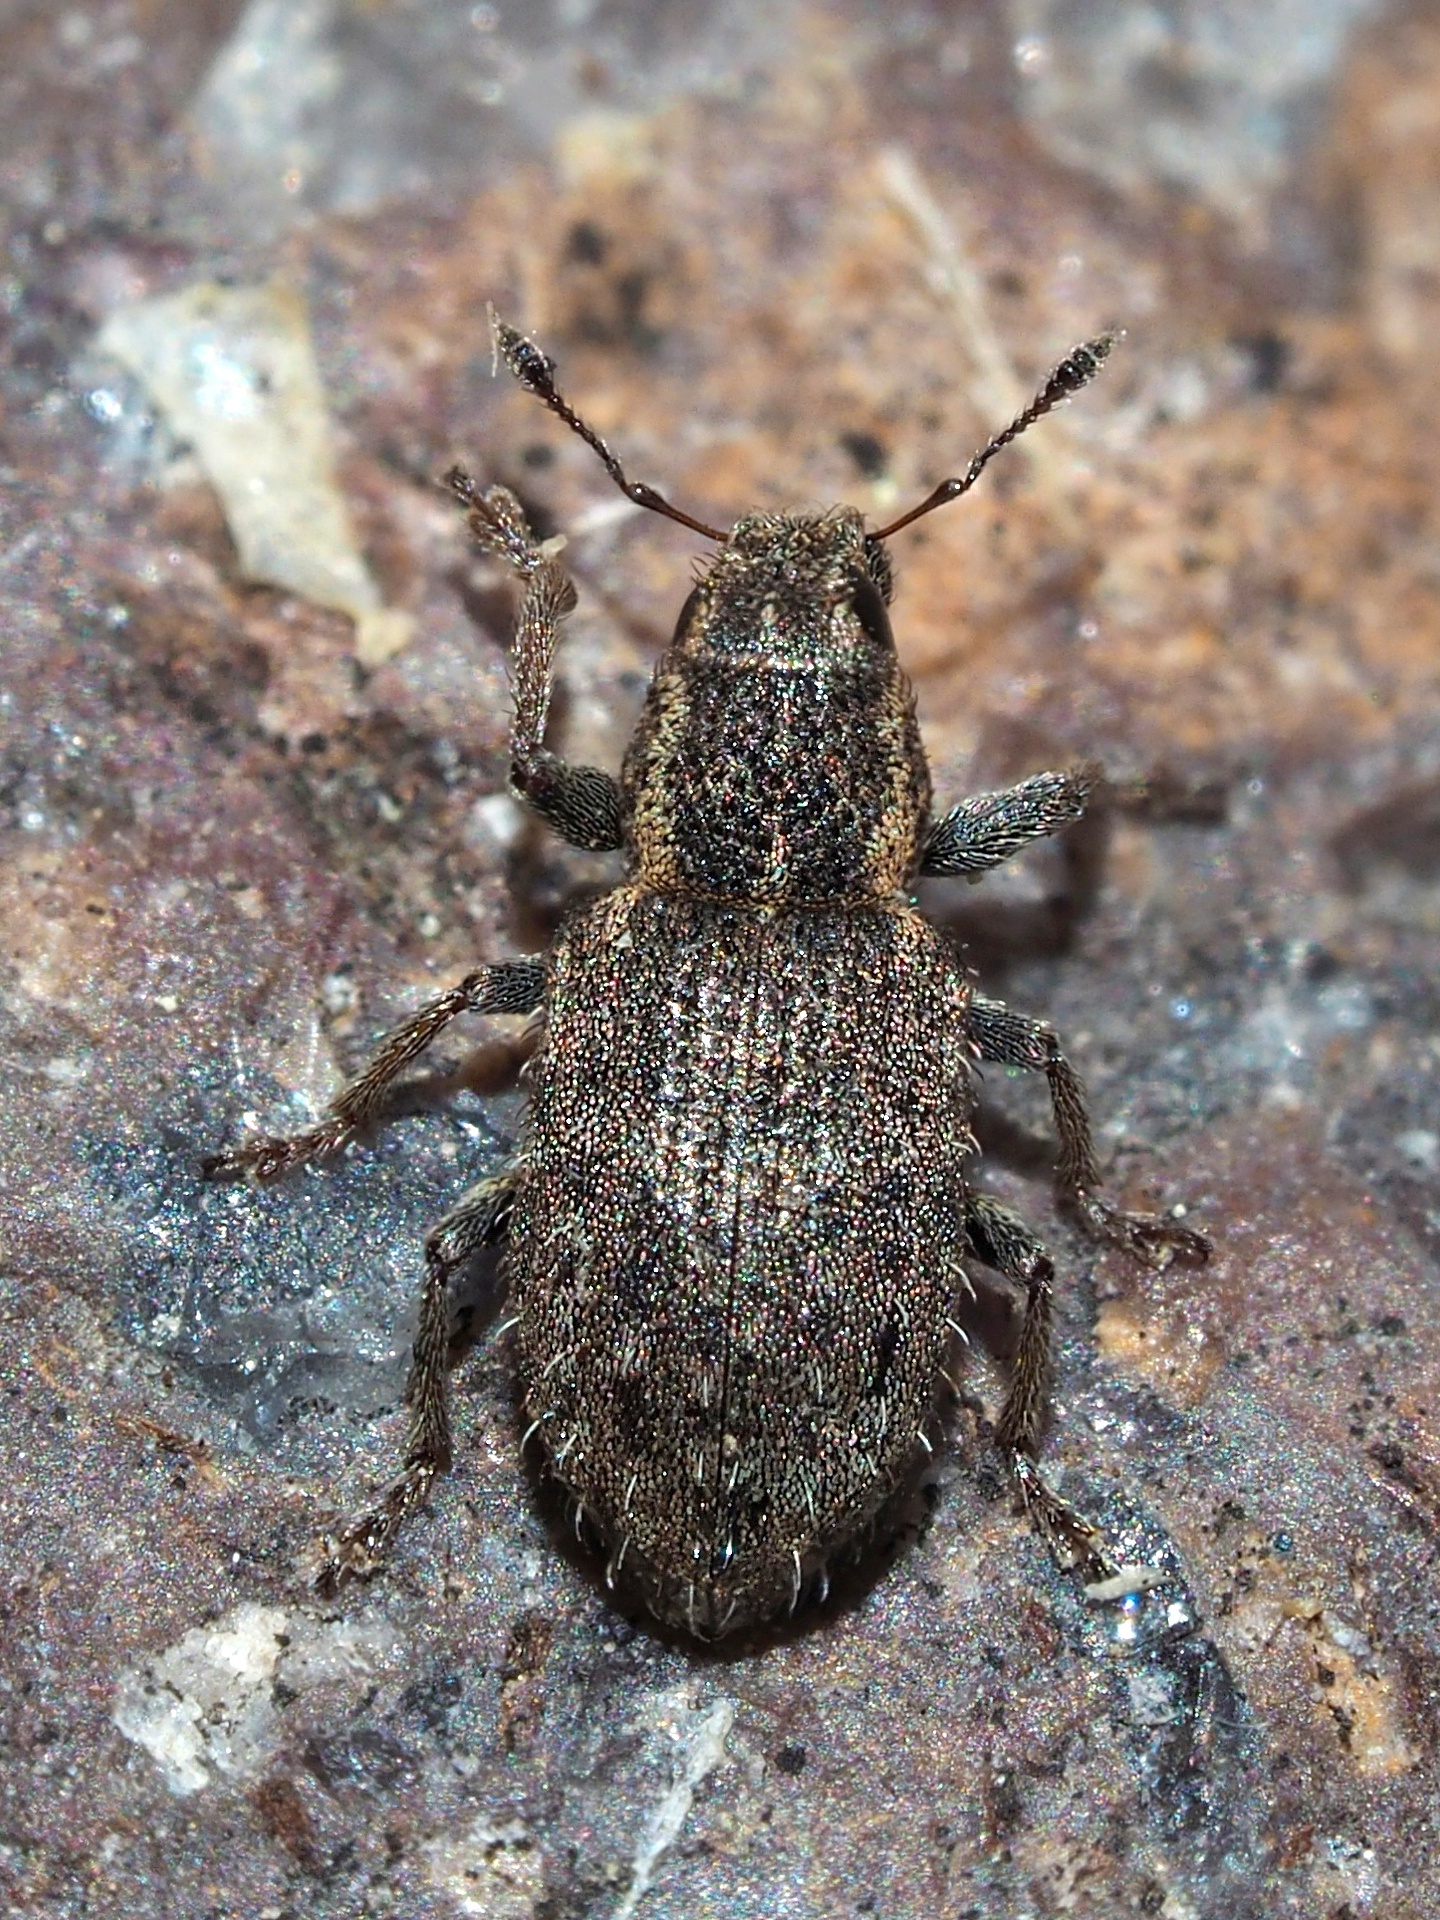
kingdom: Animalia
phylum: Arthropoda
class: Insecta
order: Coleoptera
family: Curculionidae
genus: Sitona
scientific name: Sitona hispidulus
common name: Clover weevil
